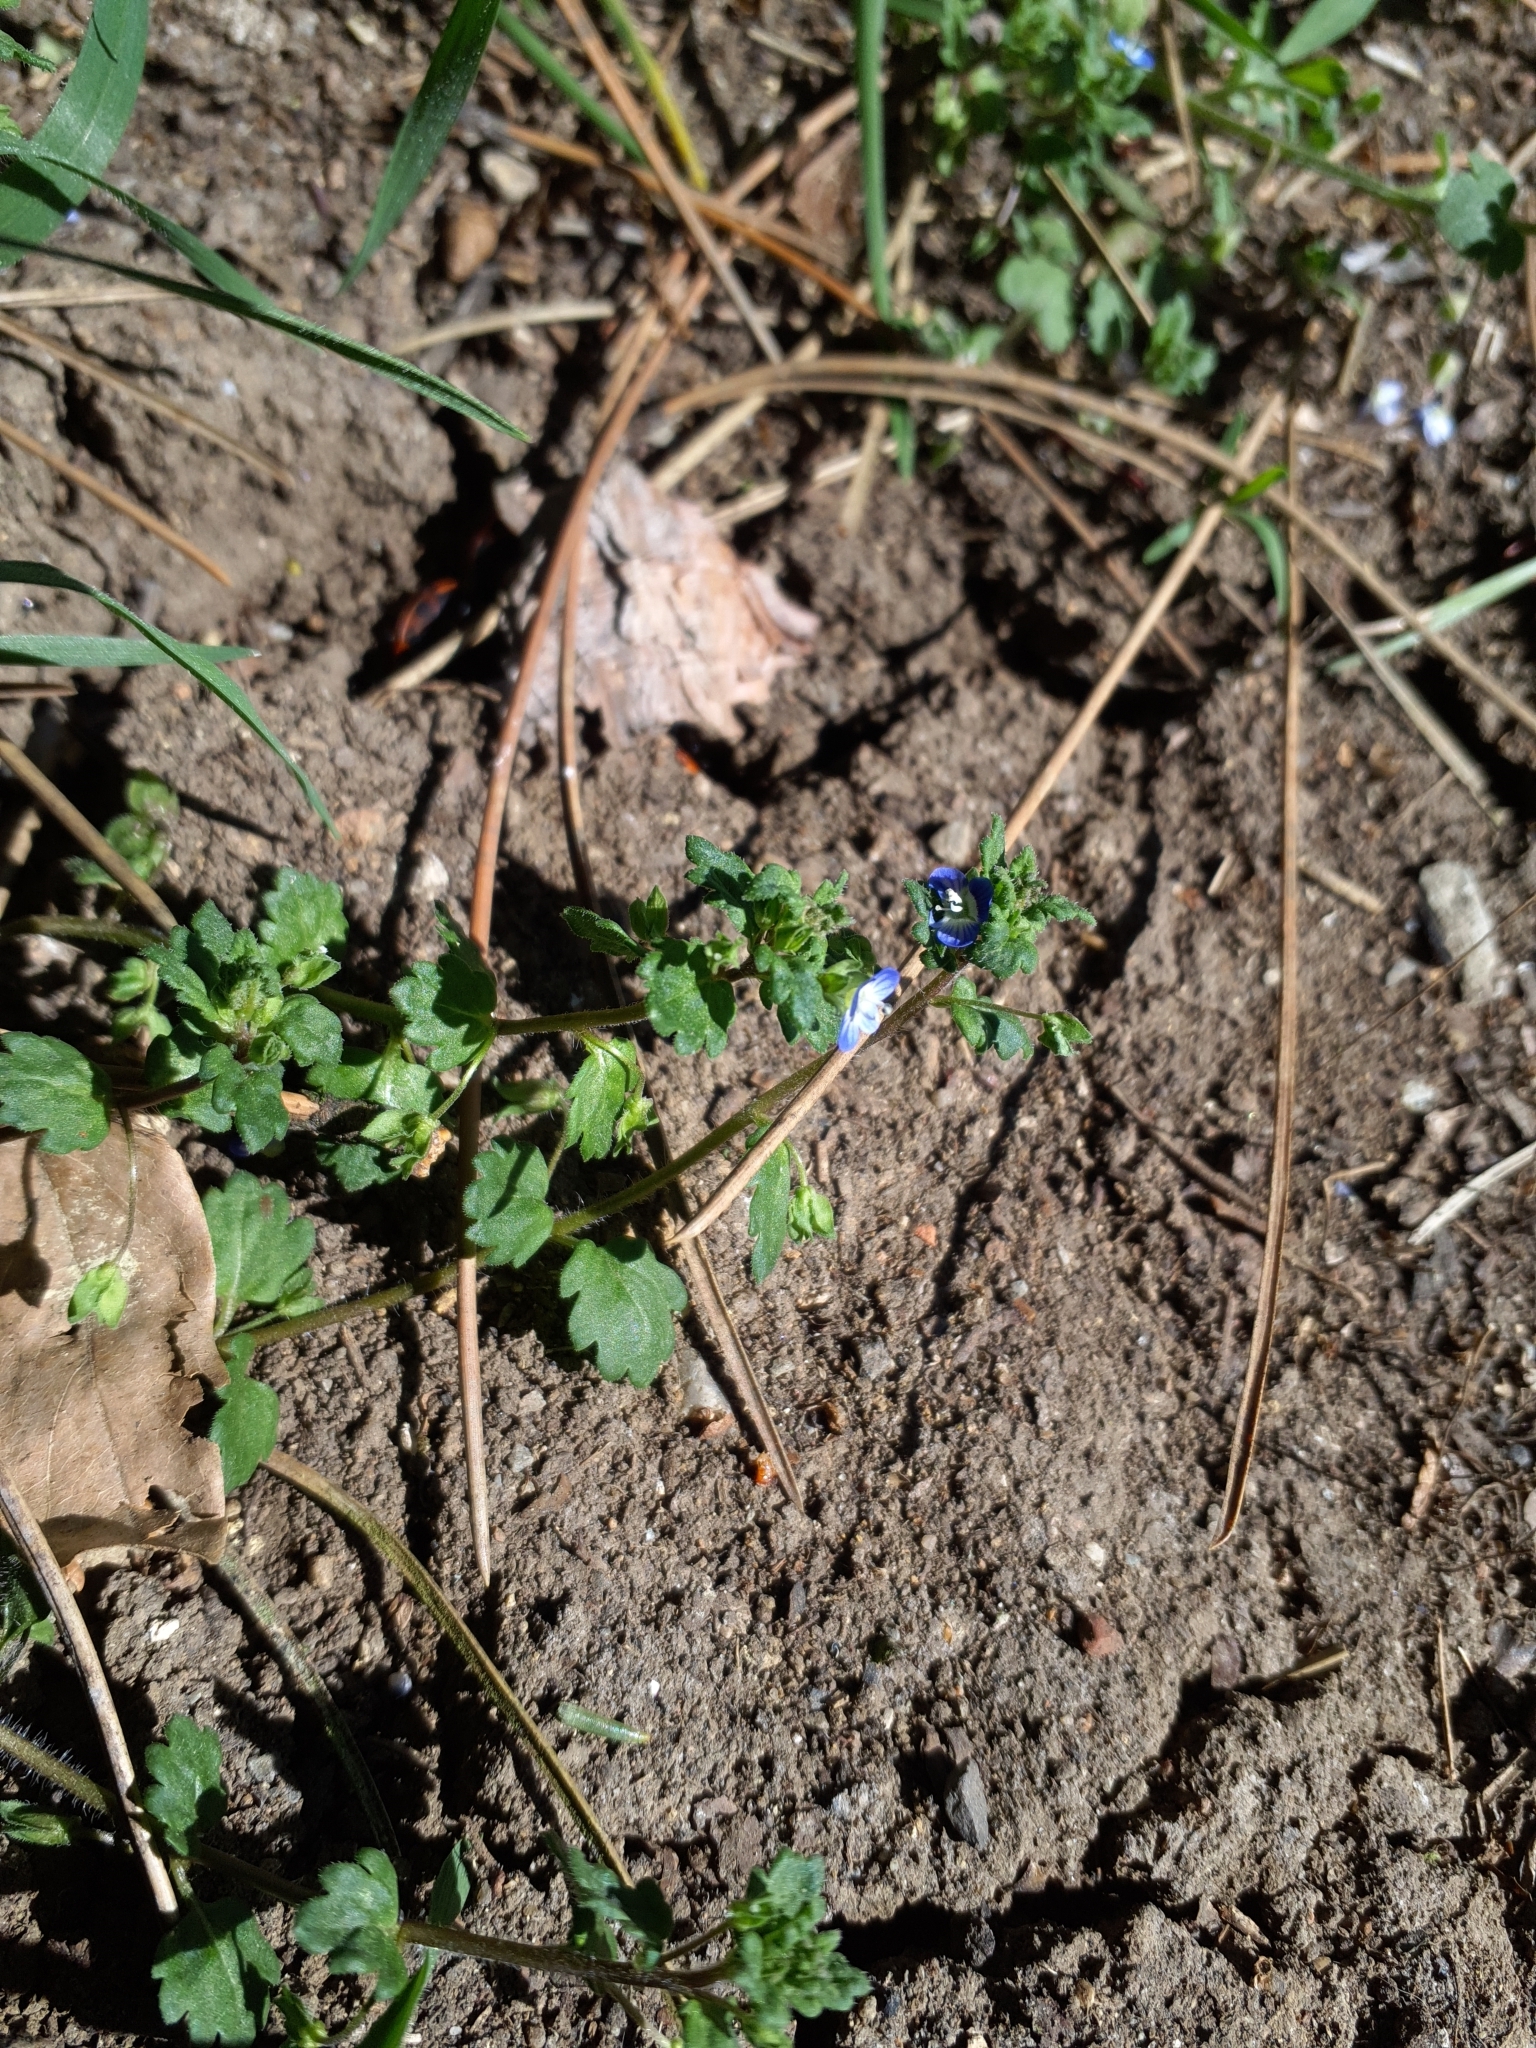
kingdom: Plantae
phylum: Tracheophyta
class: Magnoliopsida
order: Lamiales
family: Plantaginaceae
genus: Veronica
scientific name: Veronica polita
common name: Grey field-speedwell
